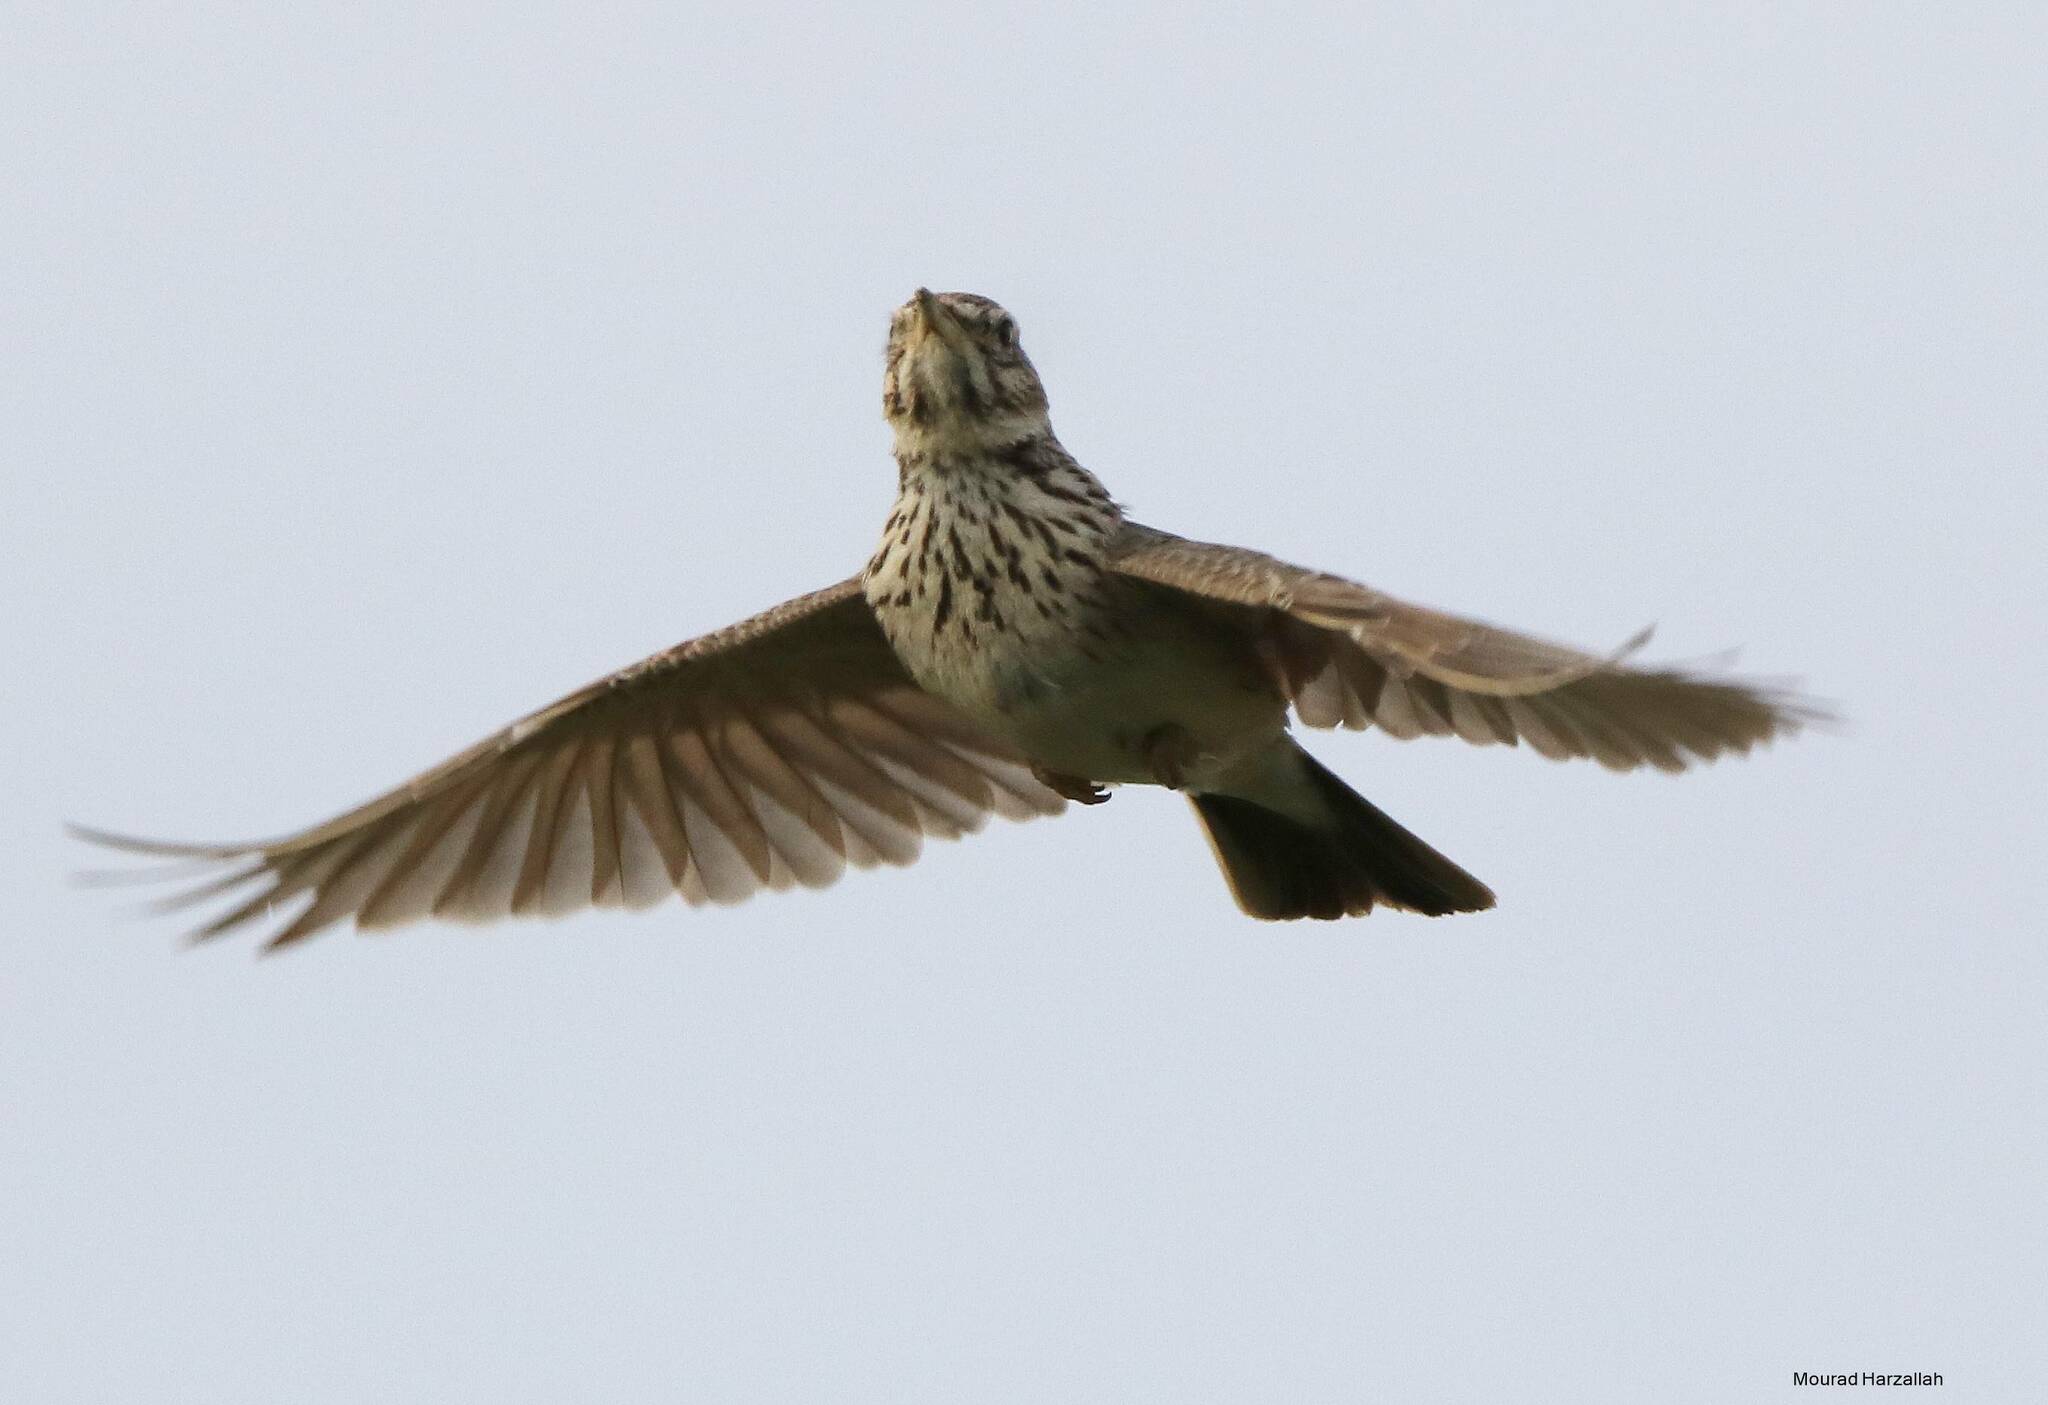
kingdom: Animalia
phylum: Chordata
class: Aves
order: Passeriformes
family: Alaudidae
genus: Galerida
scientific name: Galerida cristata
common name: Crested lark
